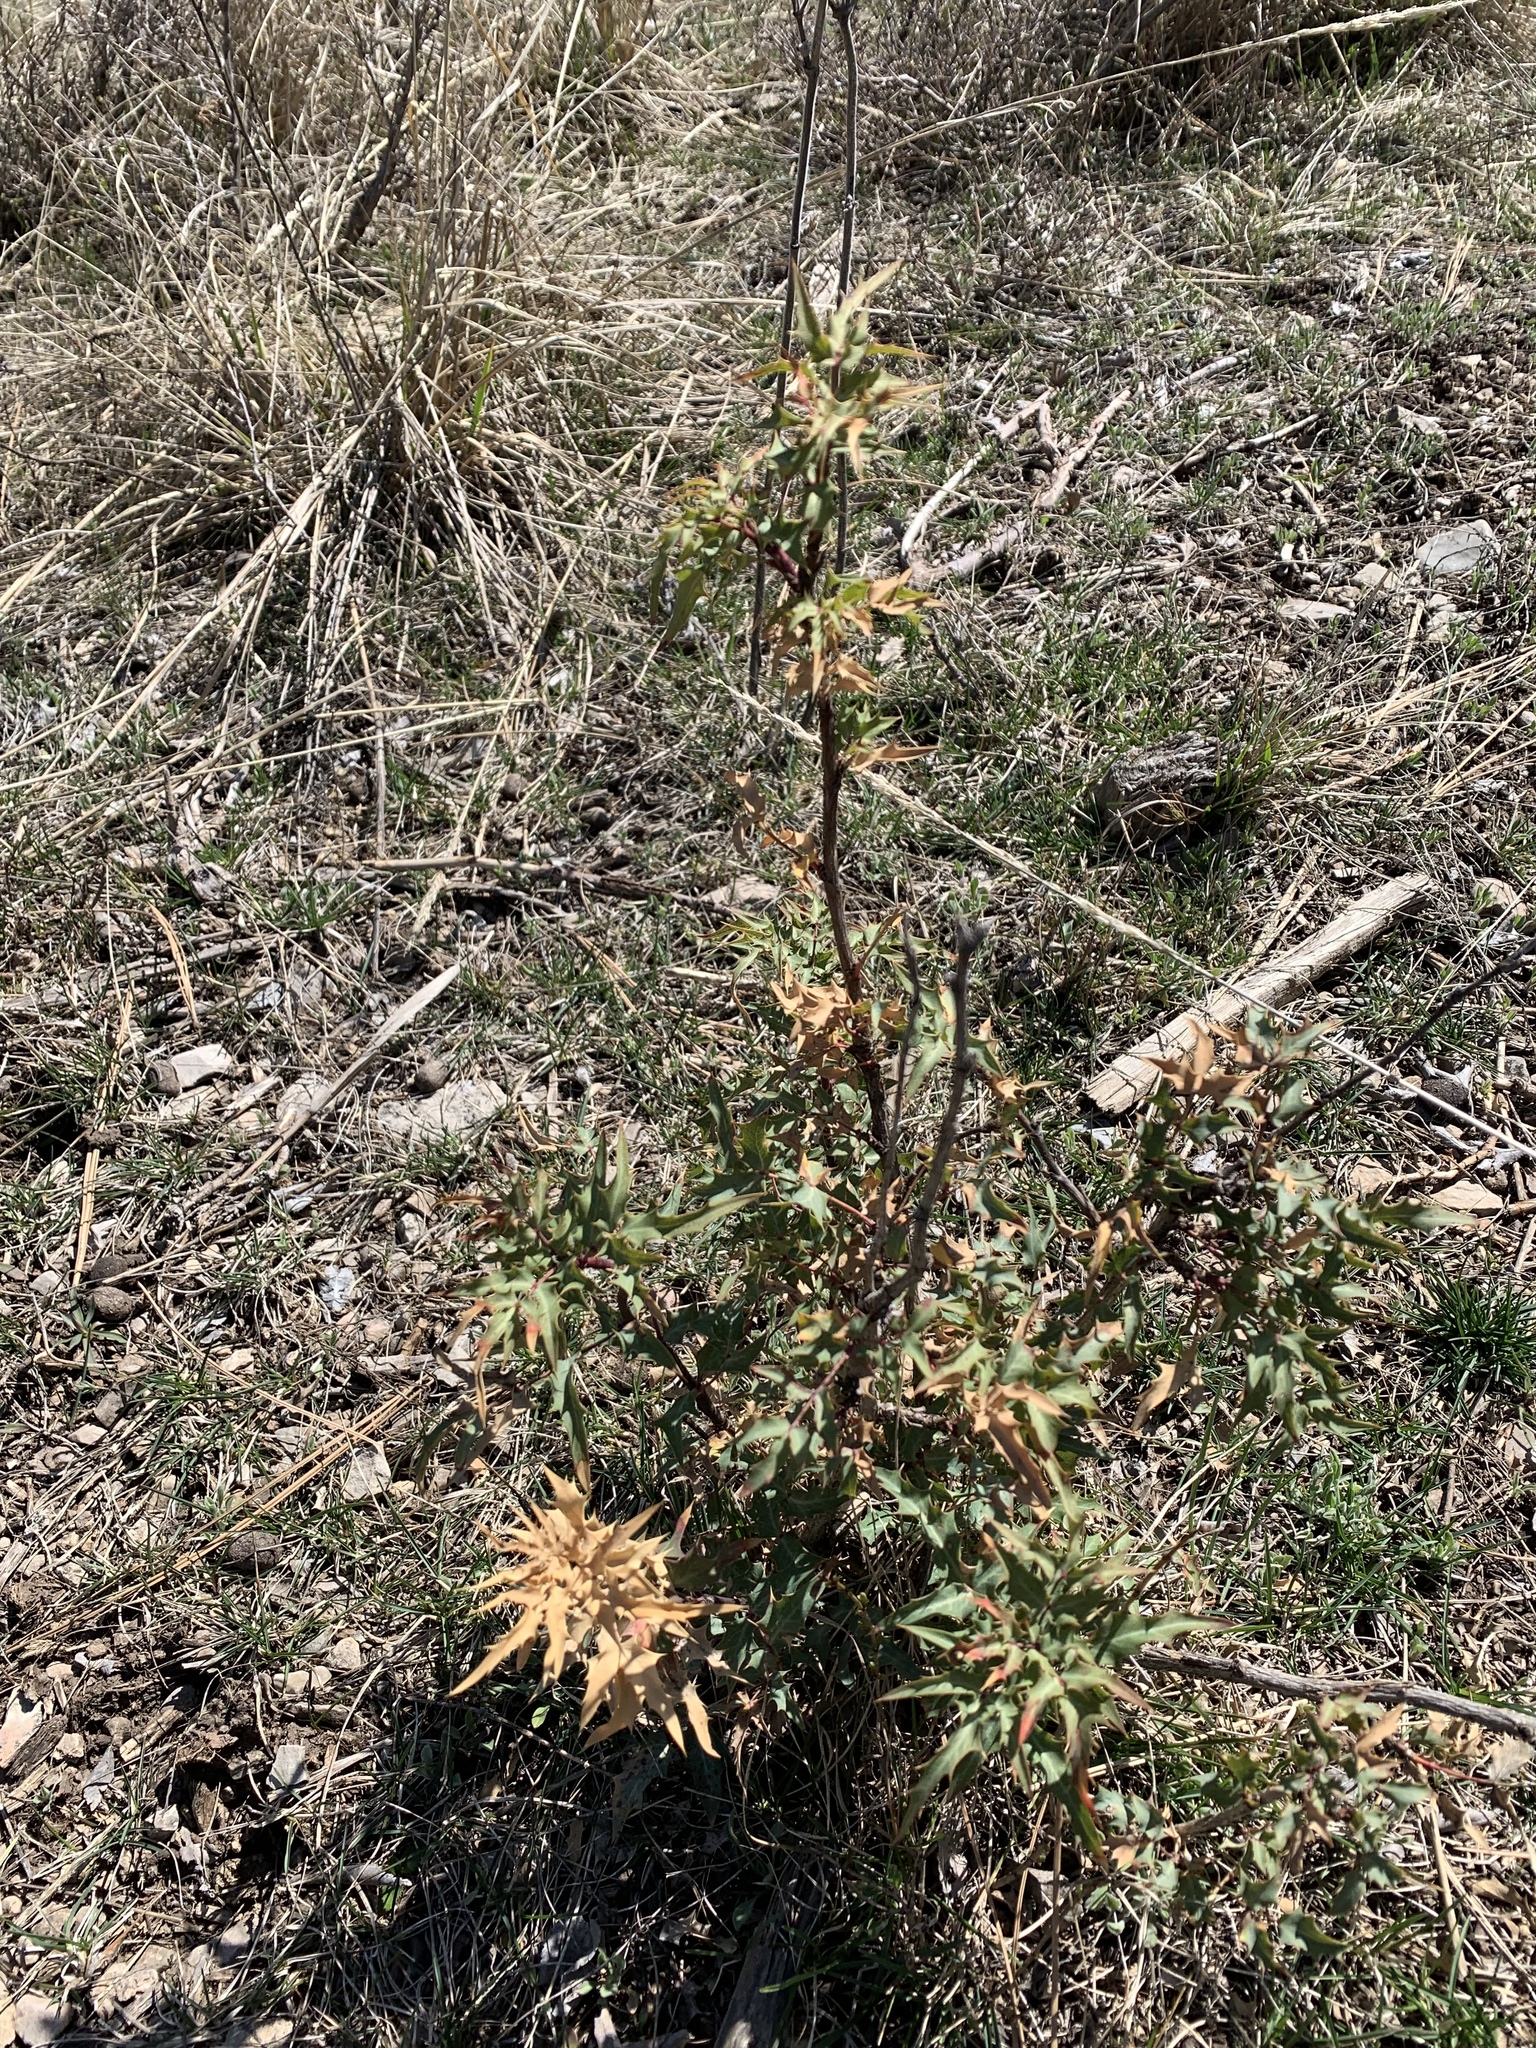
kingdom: Plantae
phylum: Tracheophyta
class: Magnoliopsida
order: Ranunculales
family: Berberidaceae
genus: Alloberberis
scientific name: Alloberberis haematocarpa
